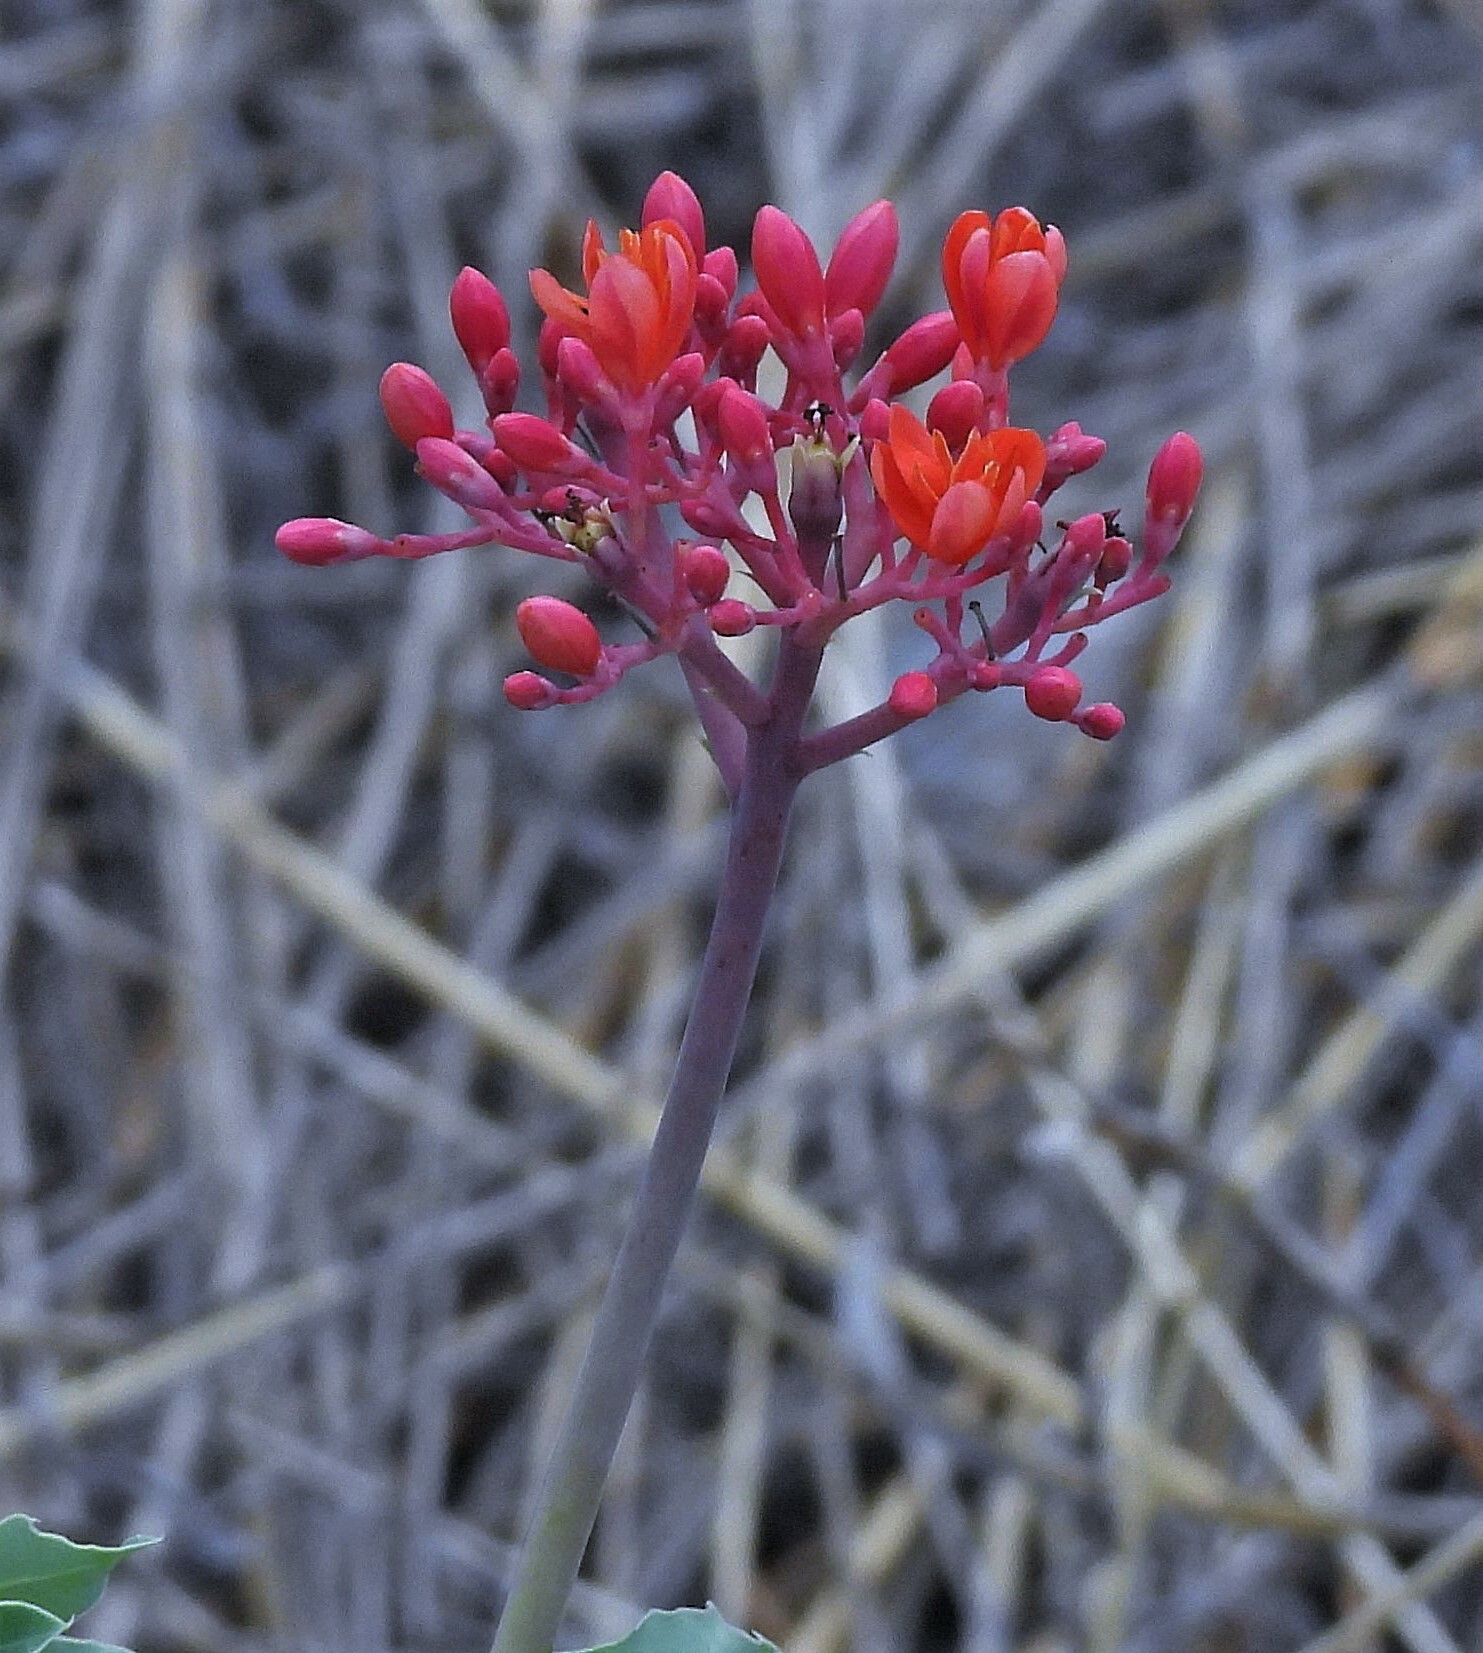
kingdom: Plantae
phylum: Tracheophyta
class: Magnoliopsida
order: Malpighiales
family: Euphorbiaceae
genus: Jatropha
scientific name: Jatropha grossidentata
